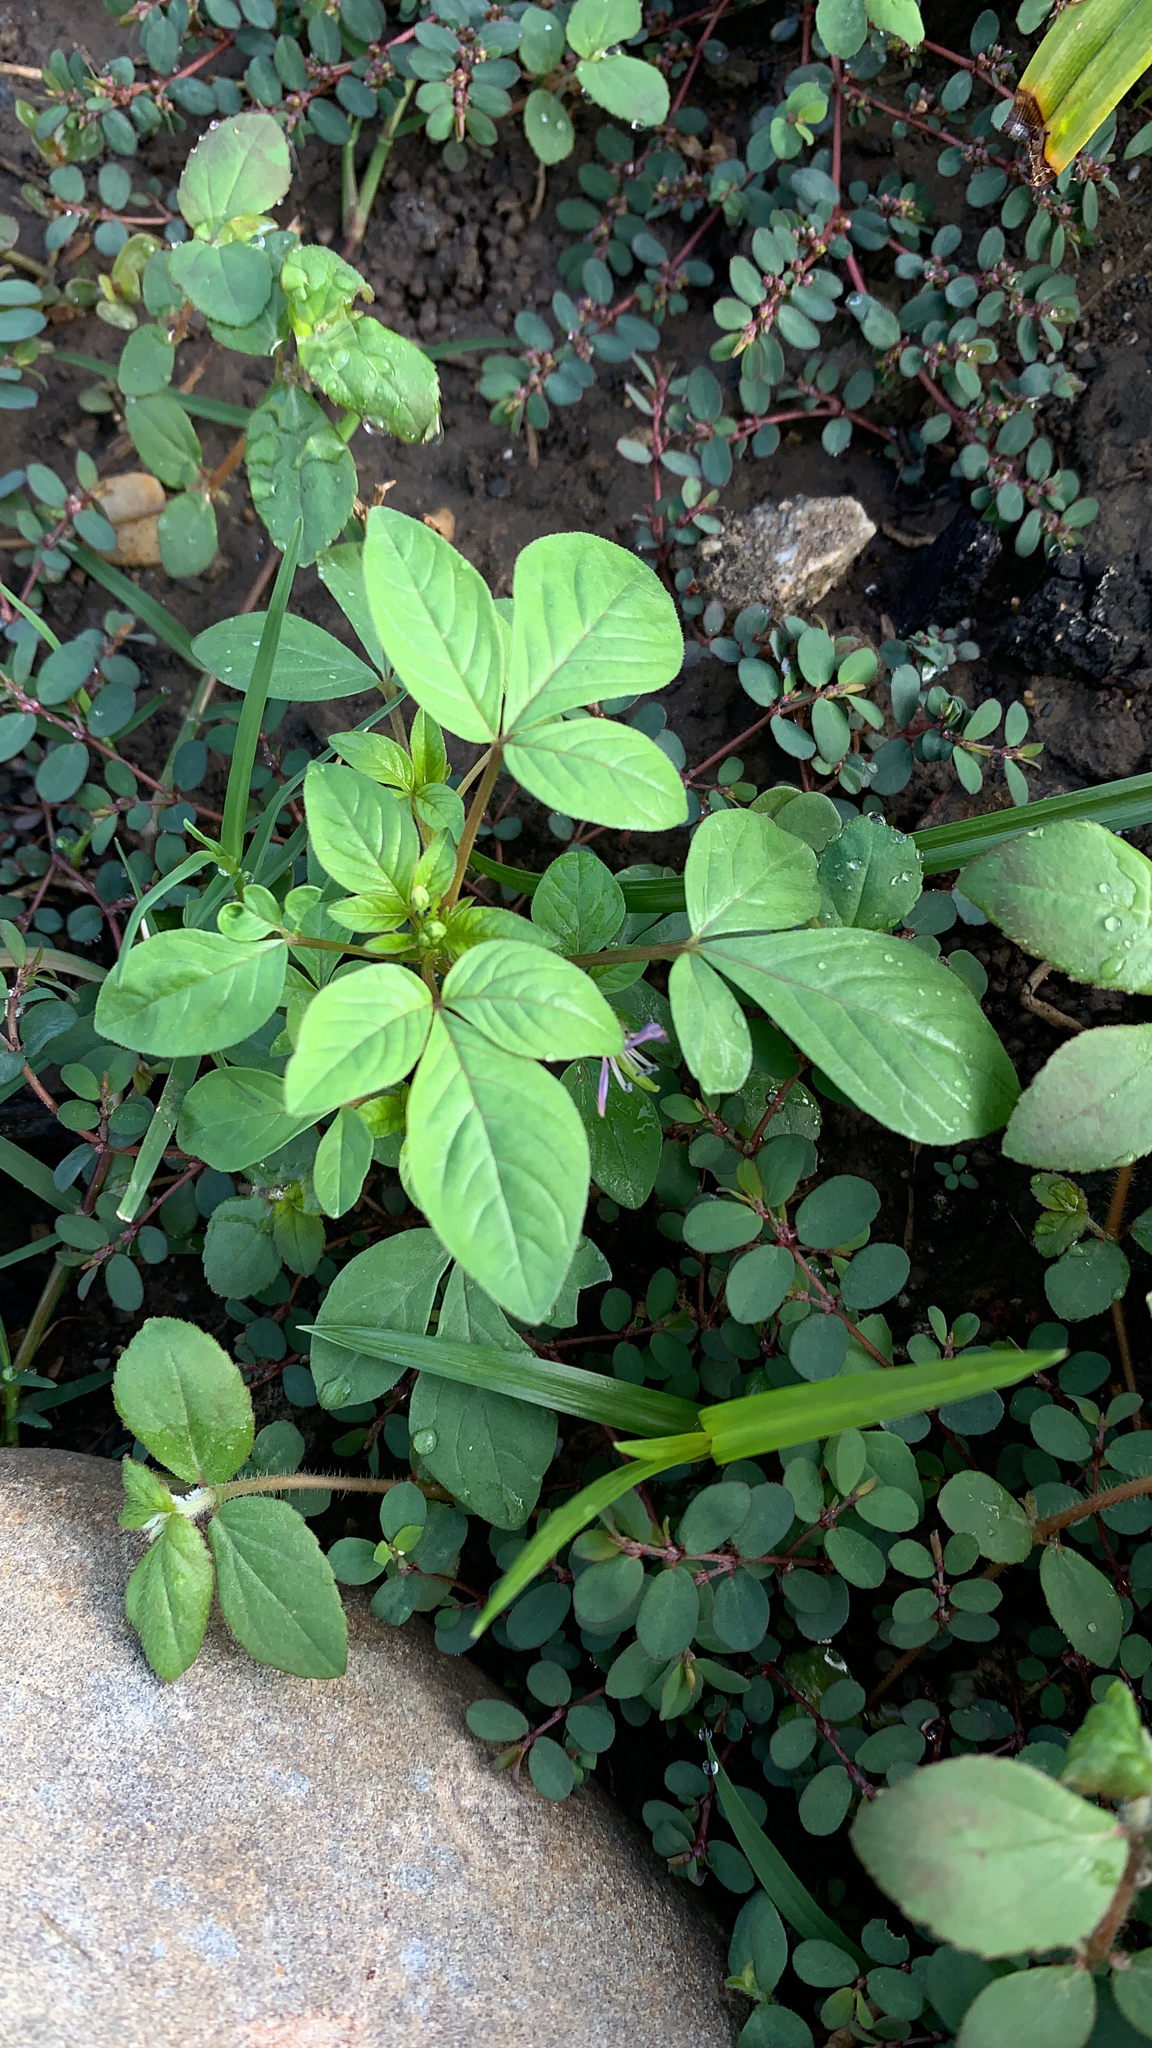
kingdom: Plantae
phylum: Tracheophyta
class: Magnoliopsida
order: Brassicales
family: Cleomaceae
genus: Sieruela
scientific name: Sieruela rutidosperma
